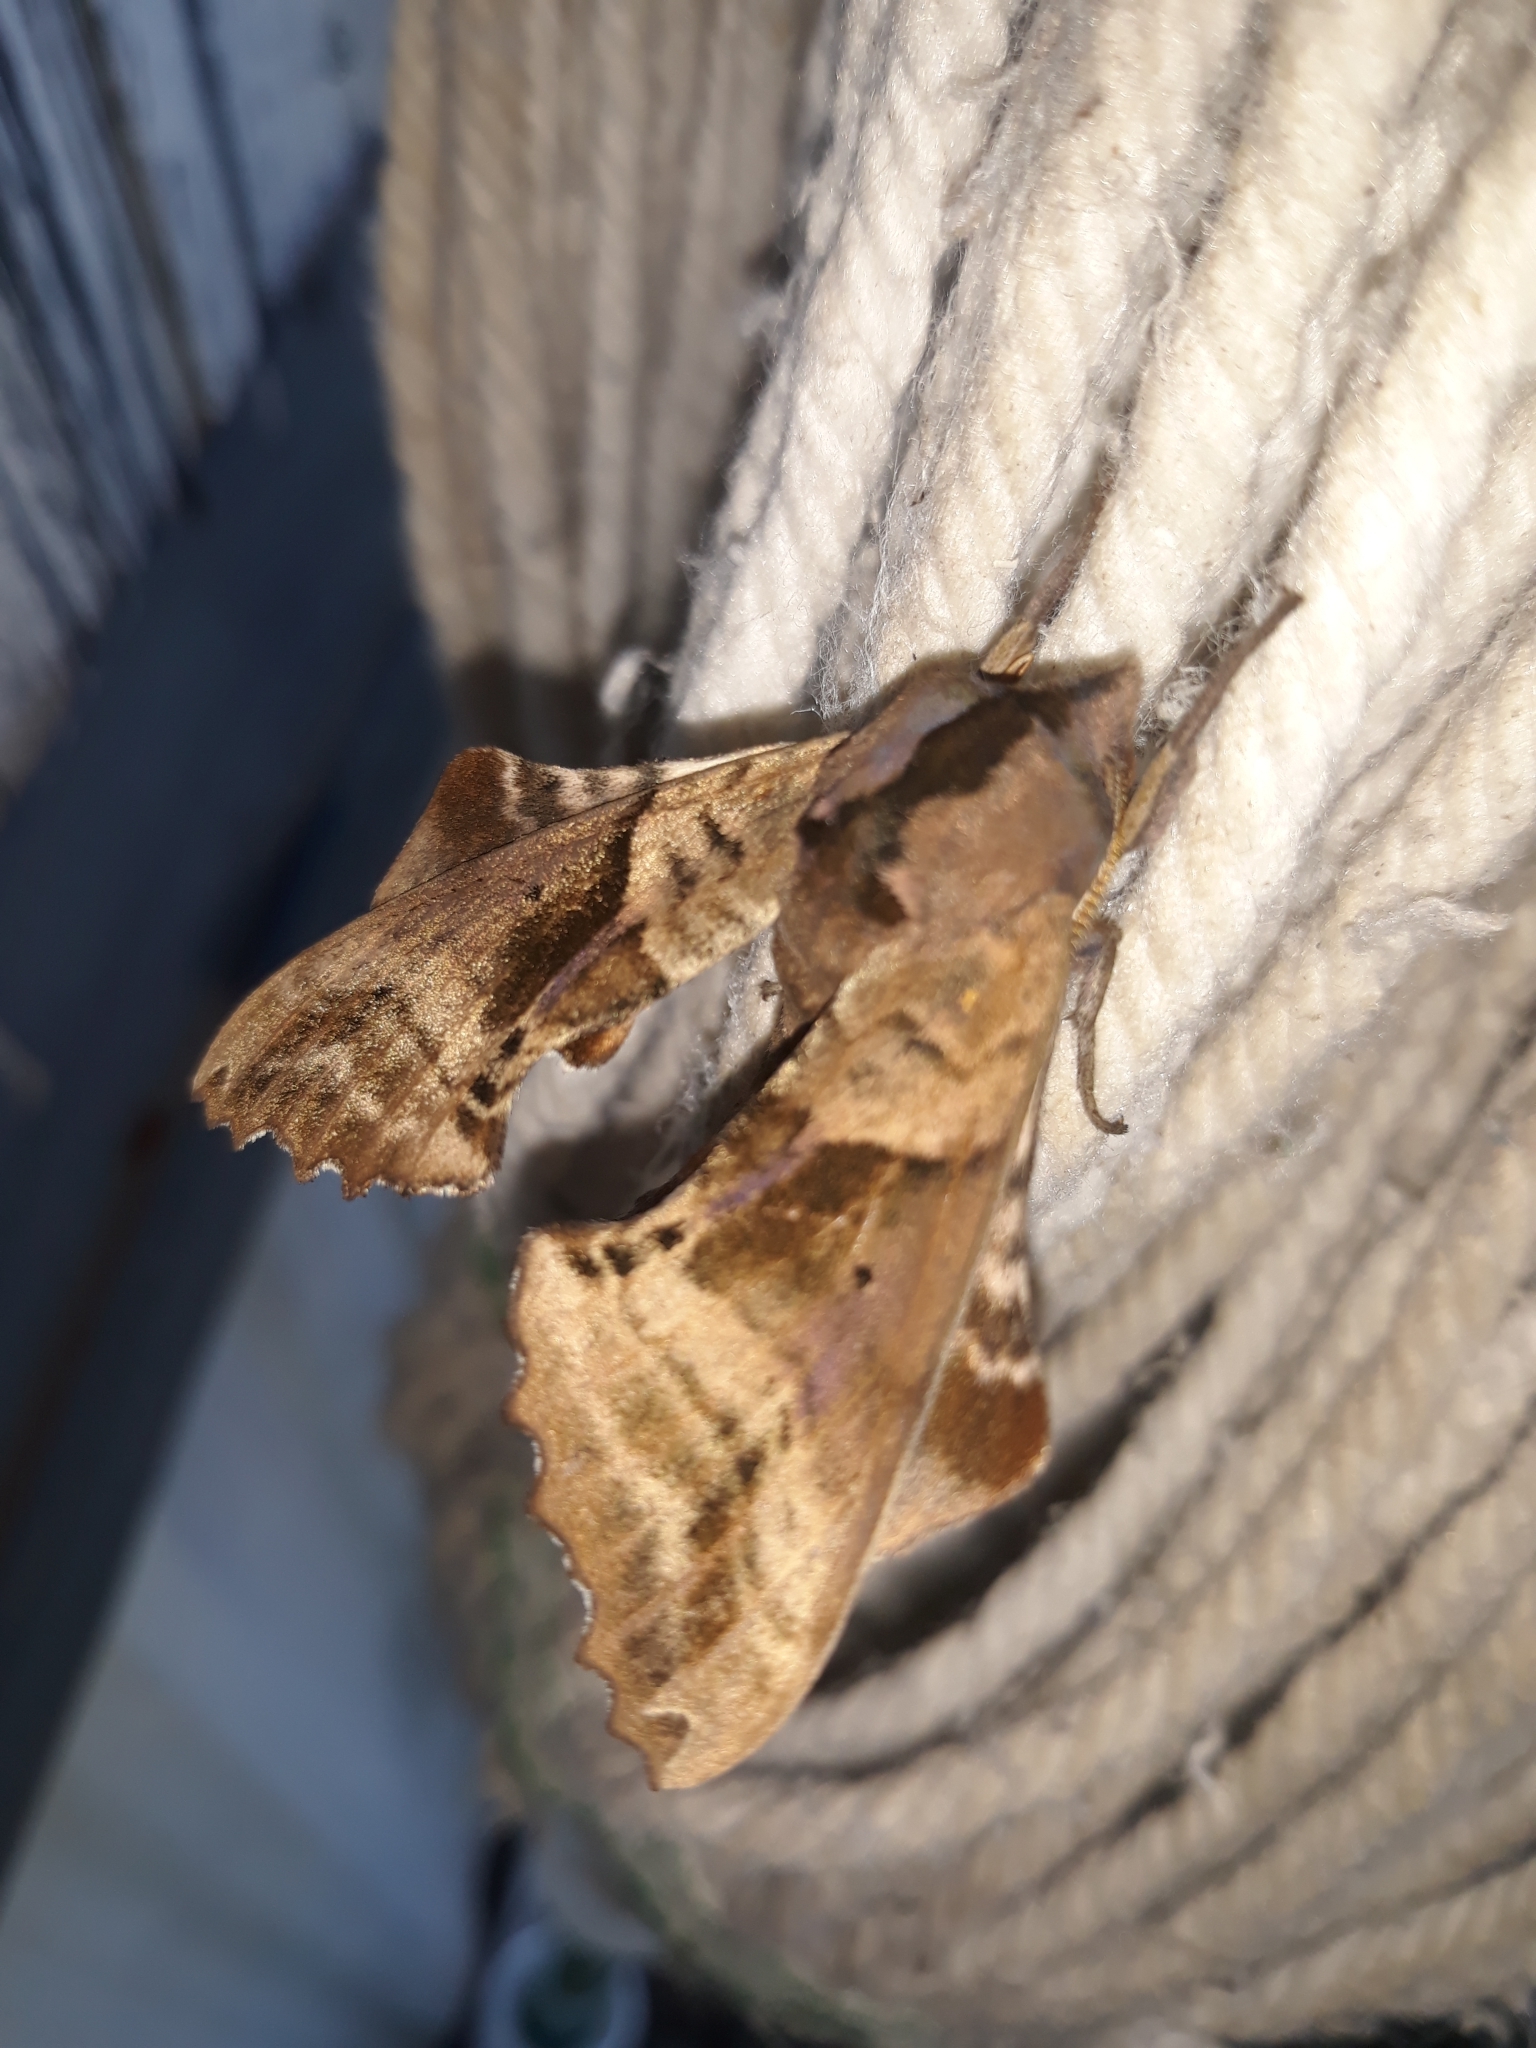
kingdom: Animalia
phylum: Arthropoda
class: Insecta
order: Lepidoptera
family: Sphingidae
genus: Paonias
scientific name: Paonias excaecata
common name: Blind-eyed sphinx
